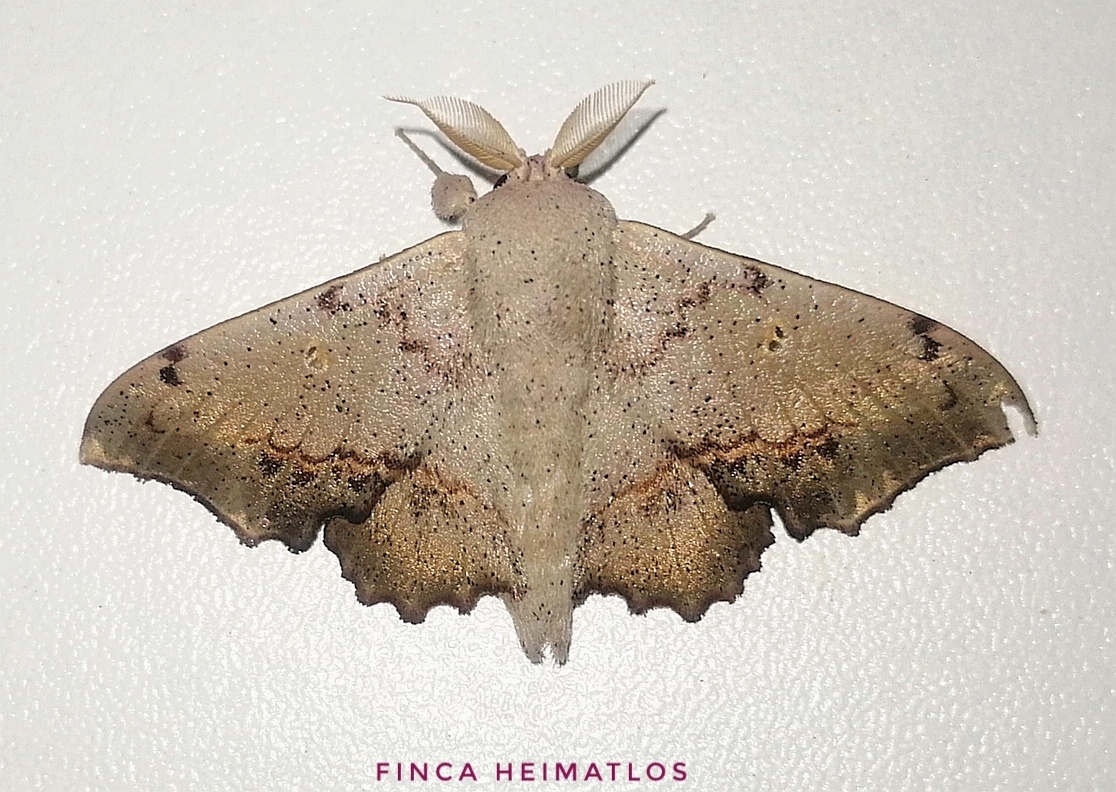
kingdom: Animalia
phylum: Arthropoda
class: Insecta
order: Lepidoptera
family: Mimallonidae
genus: Mimallo
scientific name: Mimallo brosica
